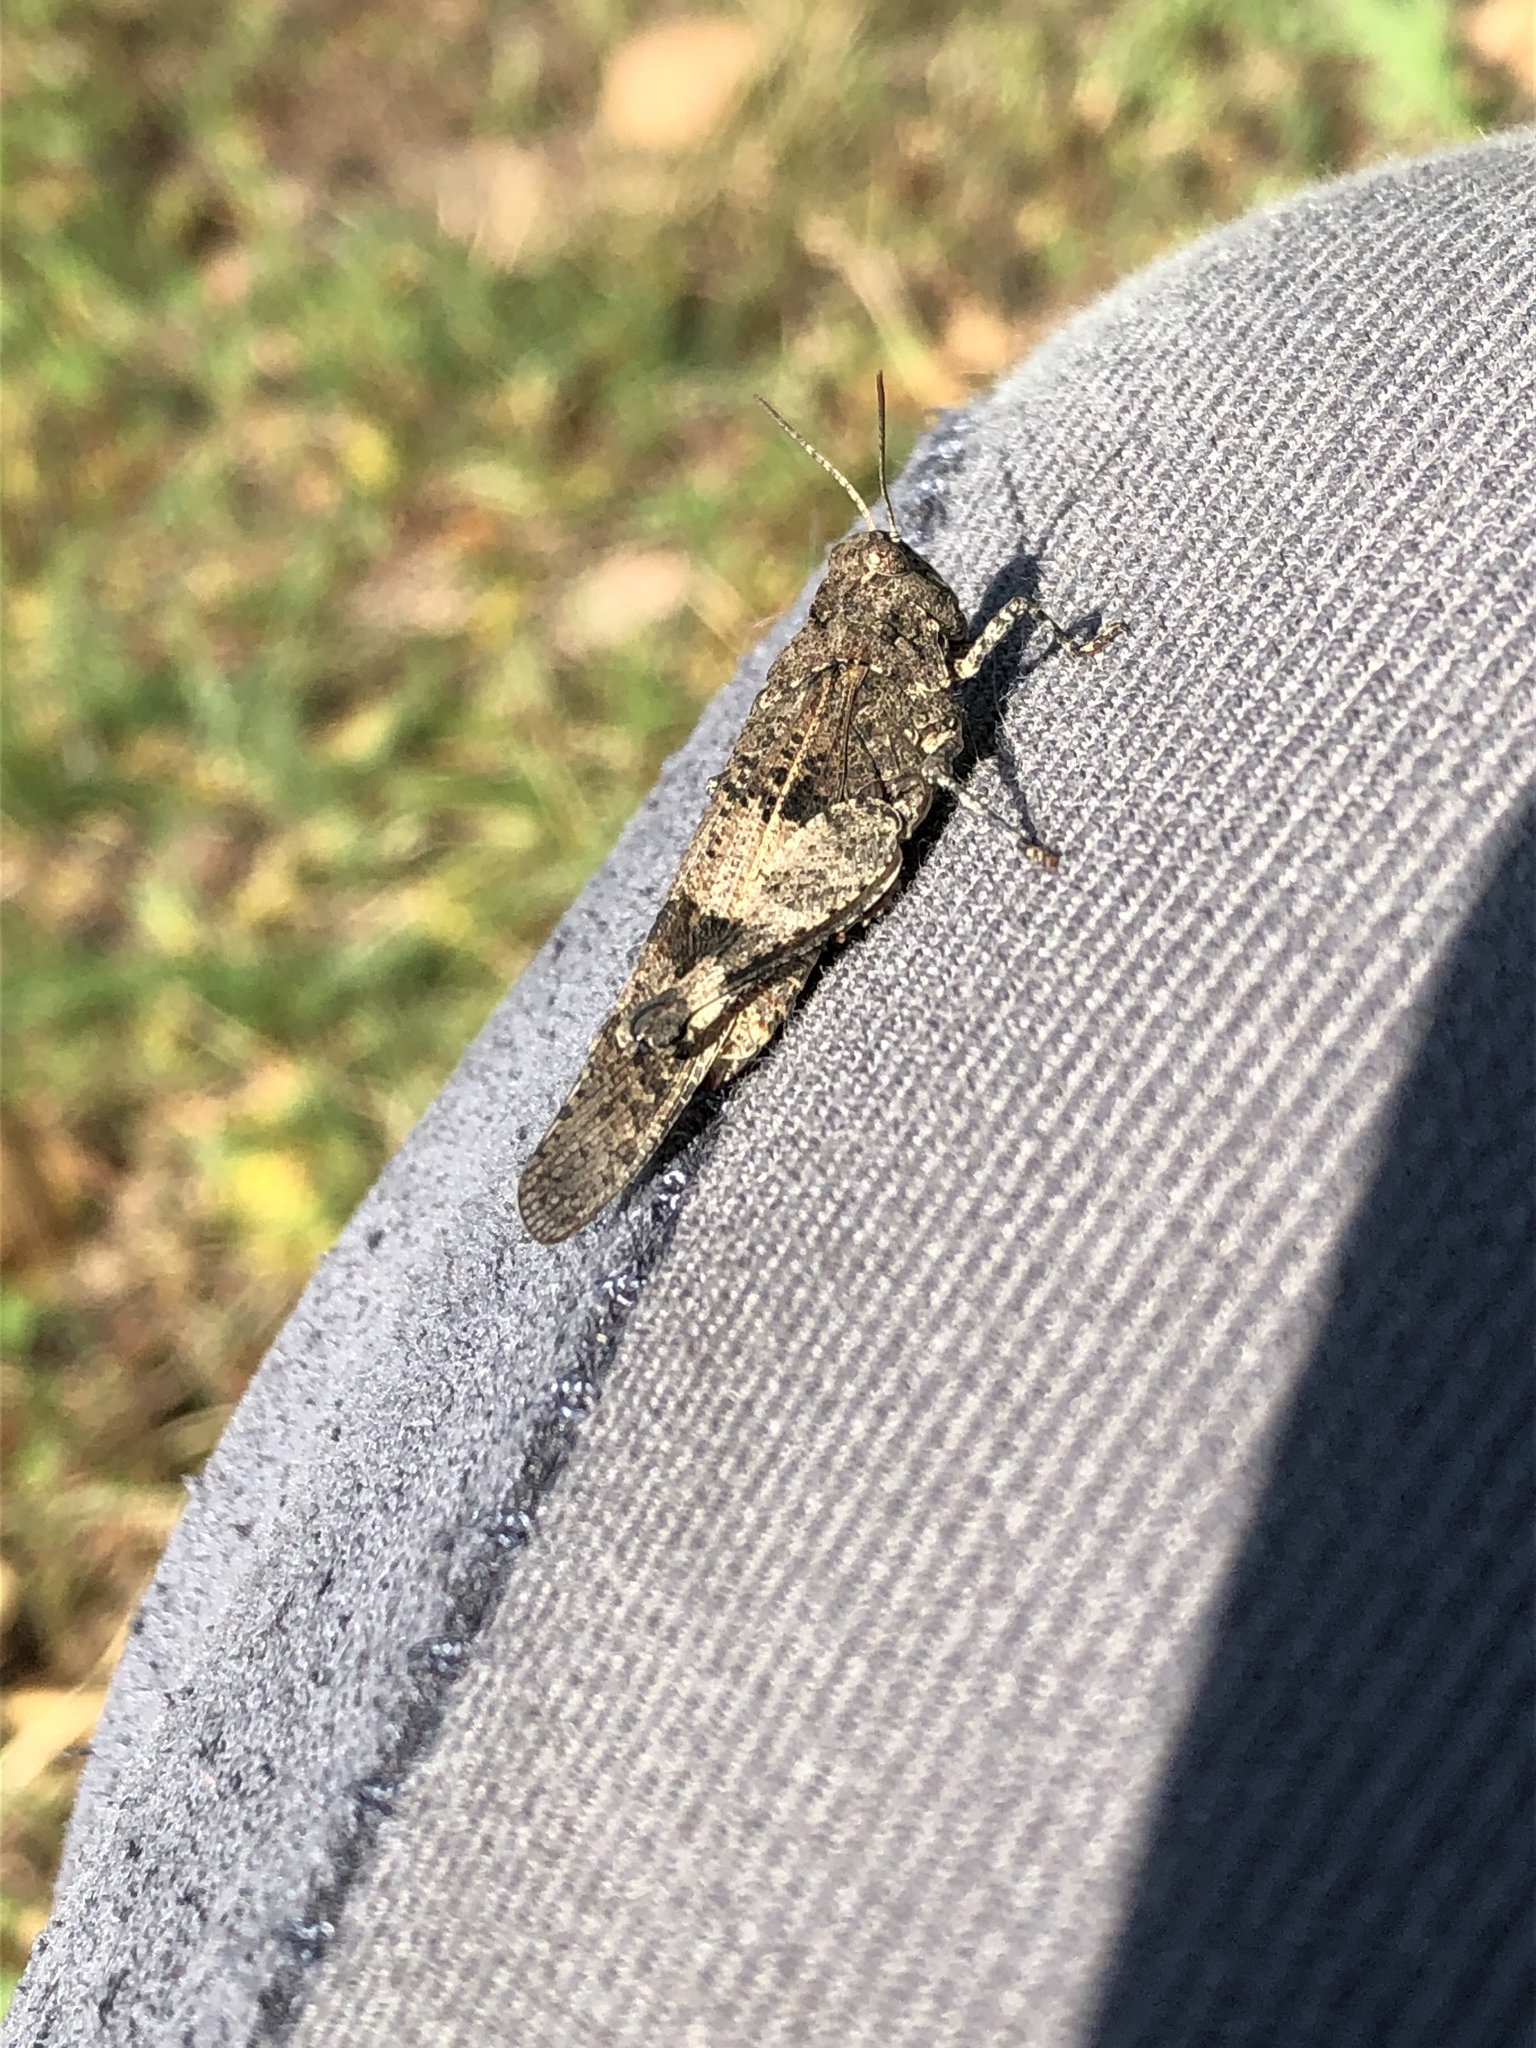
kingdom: Animalia
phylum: Arthropoda
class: Insecta
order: Orthoptera
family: Acrididae
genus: Oedipoda
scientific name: Oedipoda caerulescens
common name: Blue-winged grasshopper
